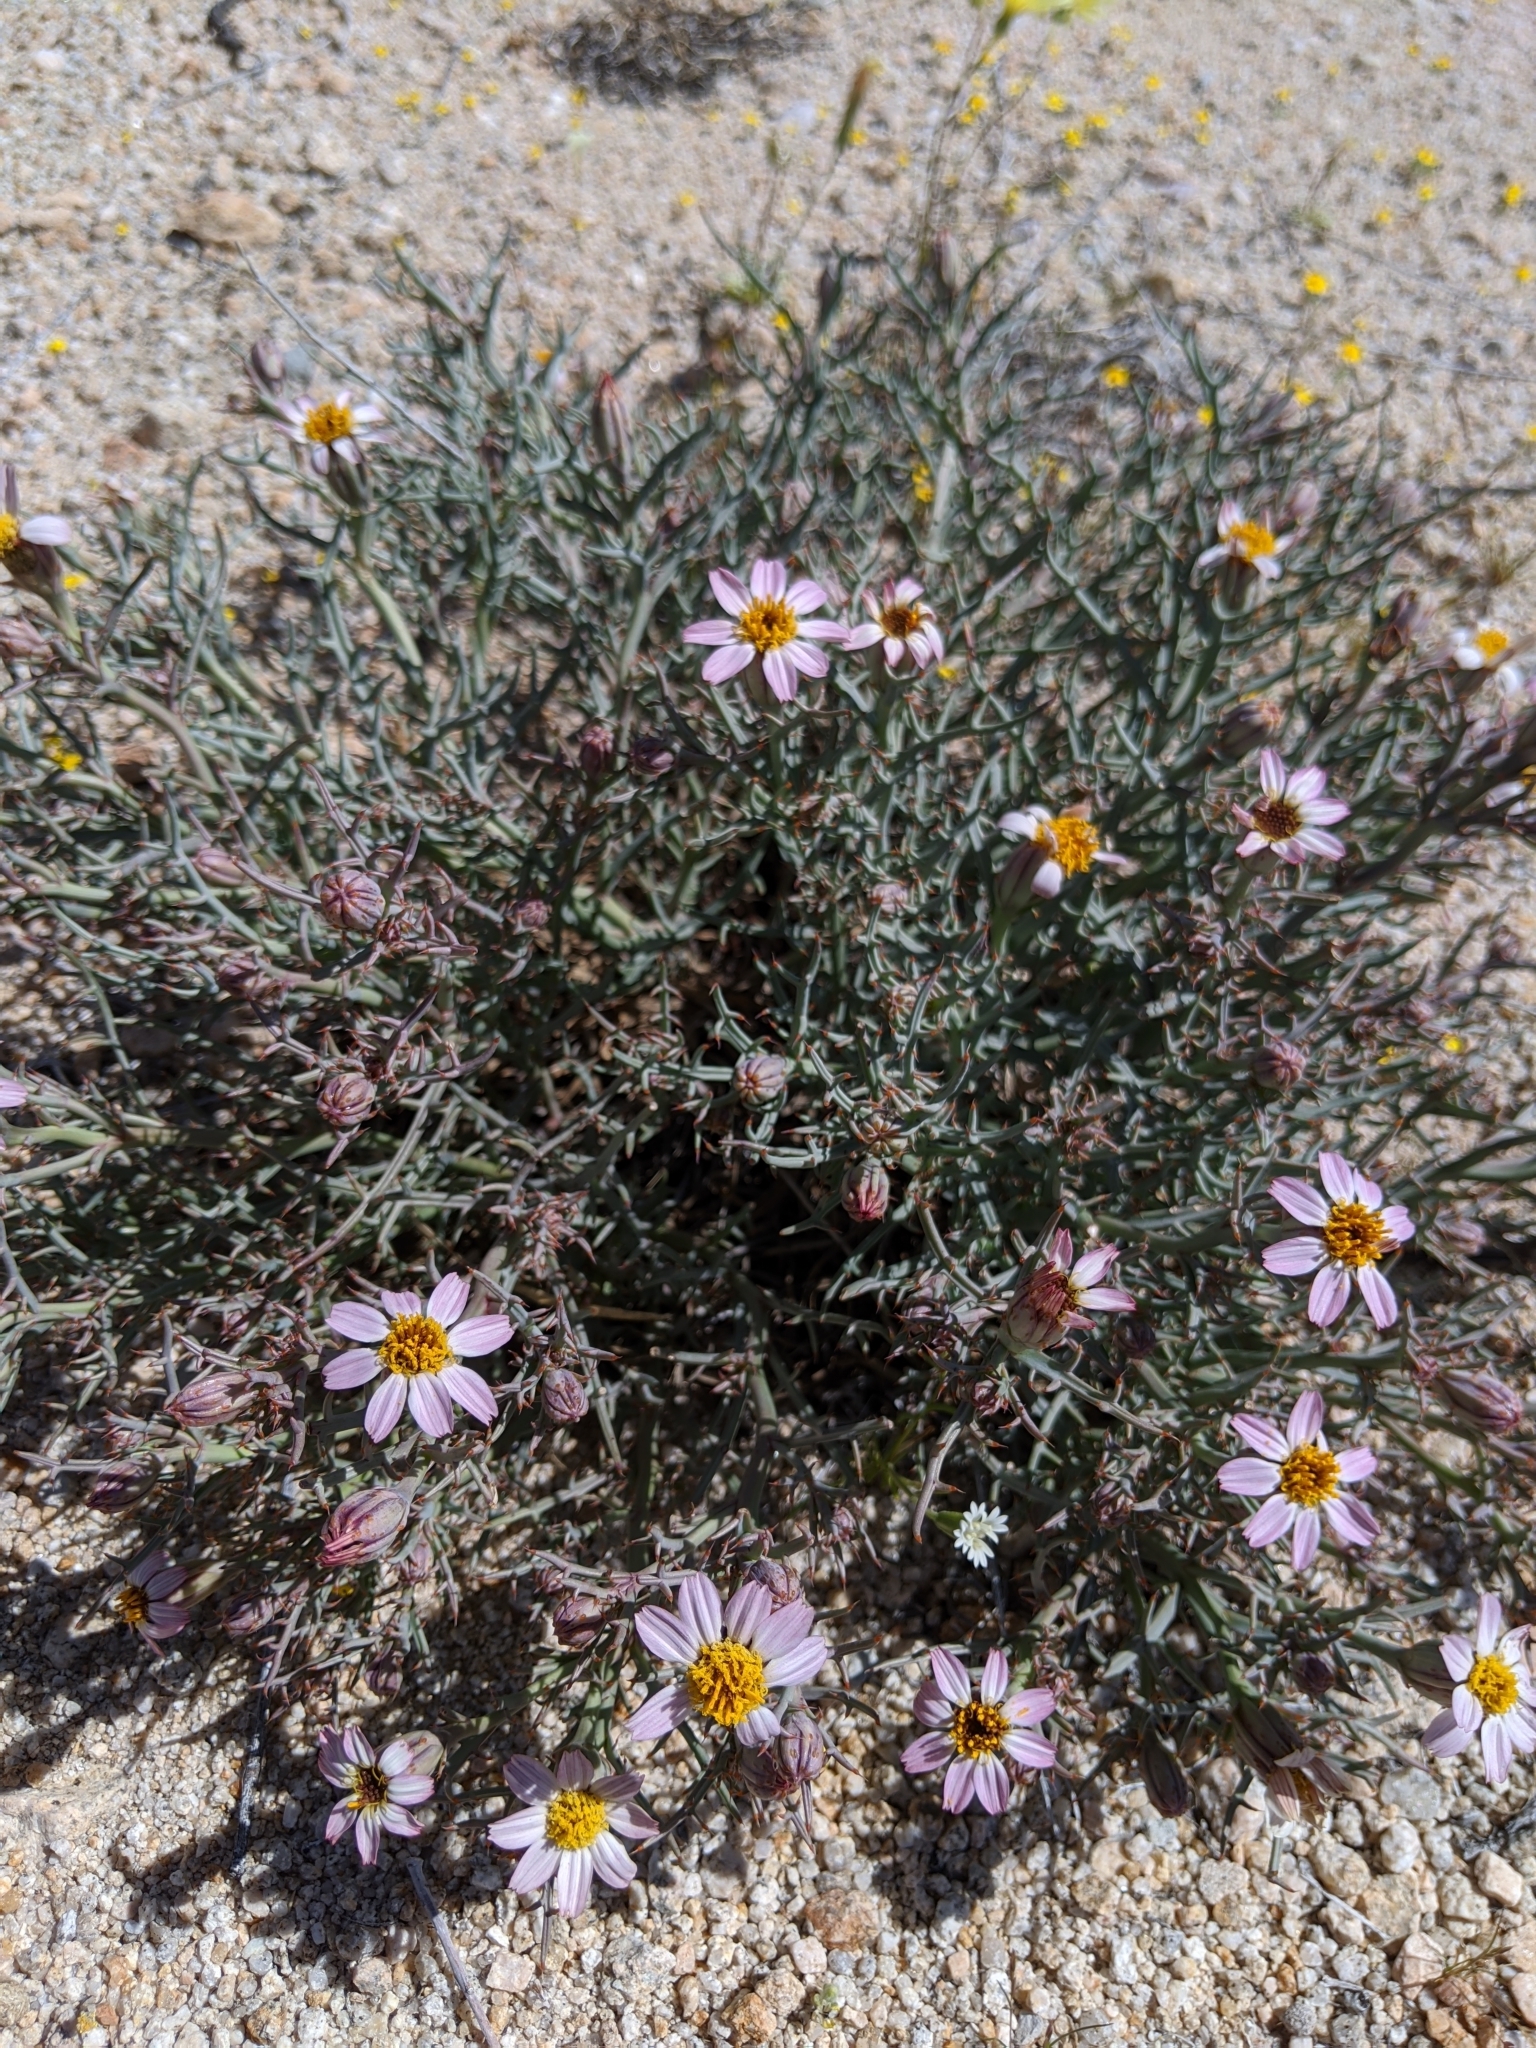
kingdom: Plantae
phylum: Tracheophyta
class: Magnoliopsida
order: Asterales
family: Asteraceae
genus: Nicolletia
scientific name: Nicolletia occidentalis
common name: Hole-in-the-sand-plant
